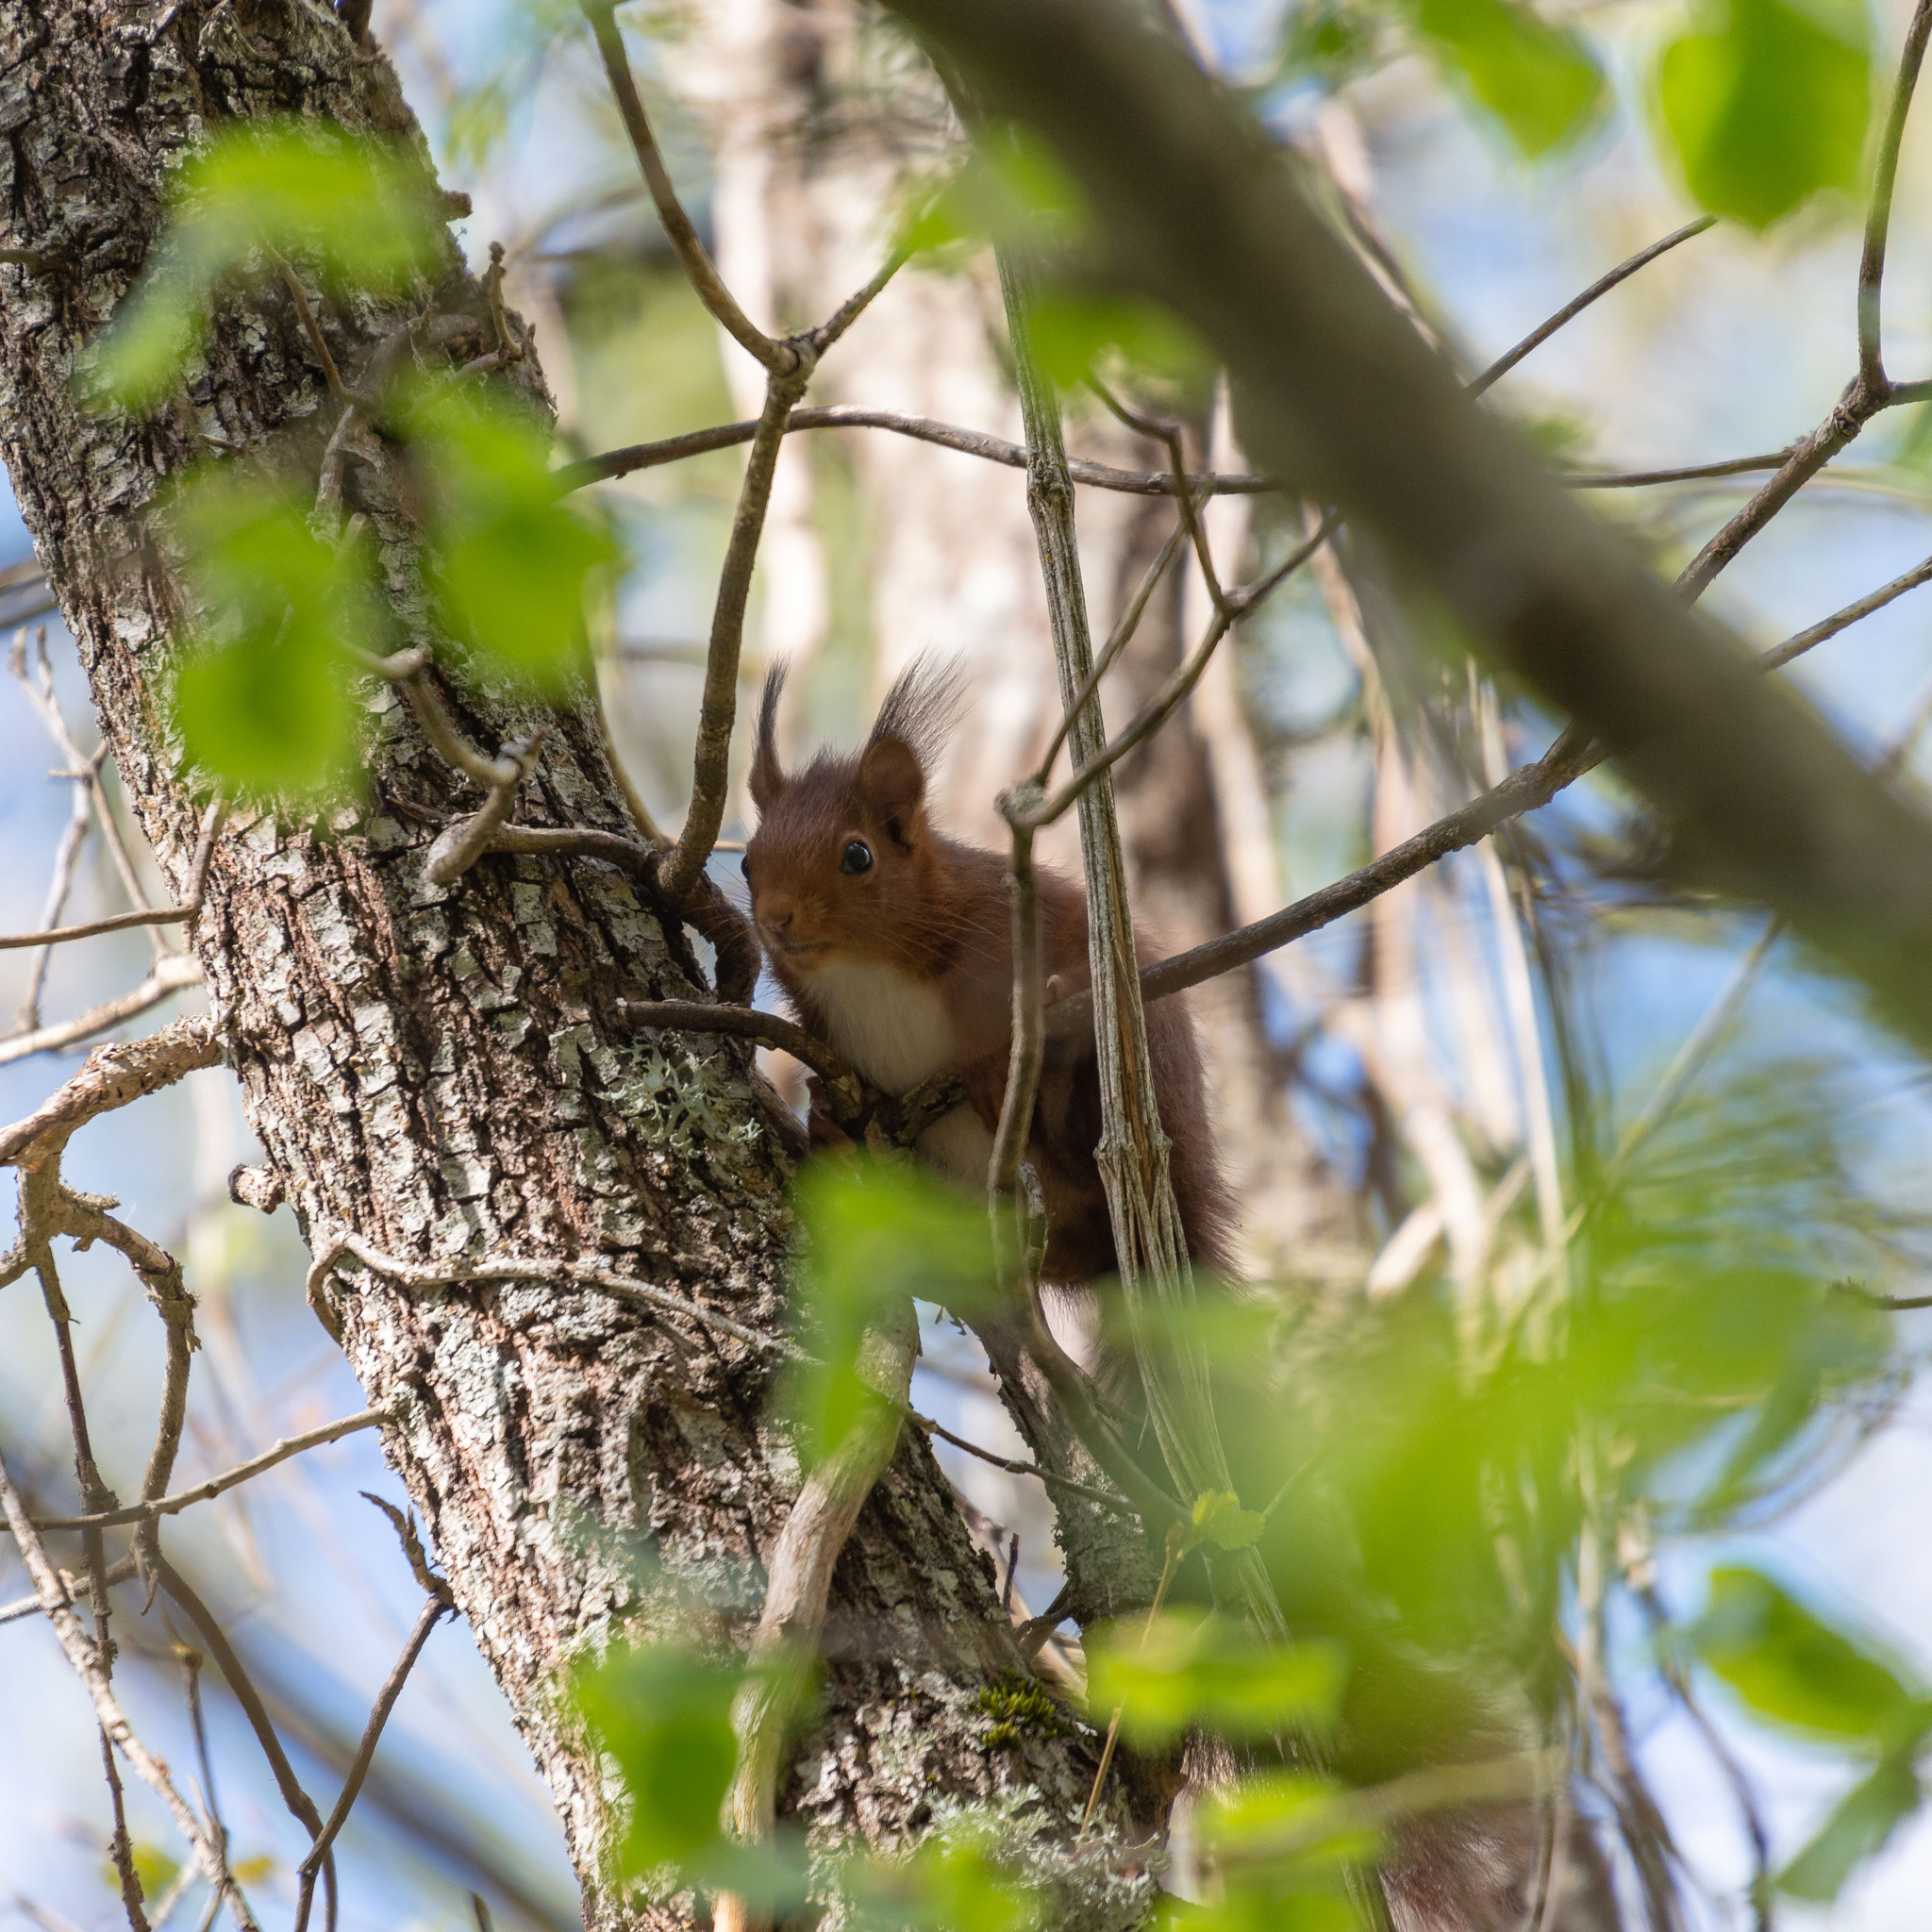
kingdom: Animalia
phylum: Chordata
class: Mammalia
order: Rodentia
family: Sciuridae
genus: Sciurus
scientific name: Sciurus vulgaris
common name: Eurasian red squirrel
